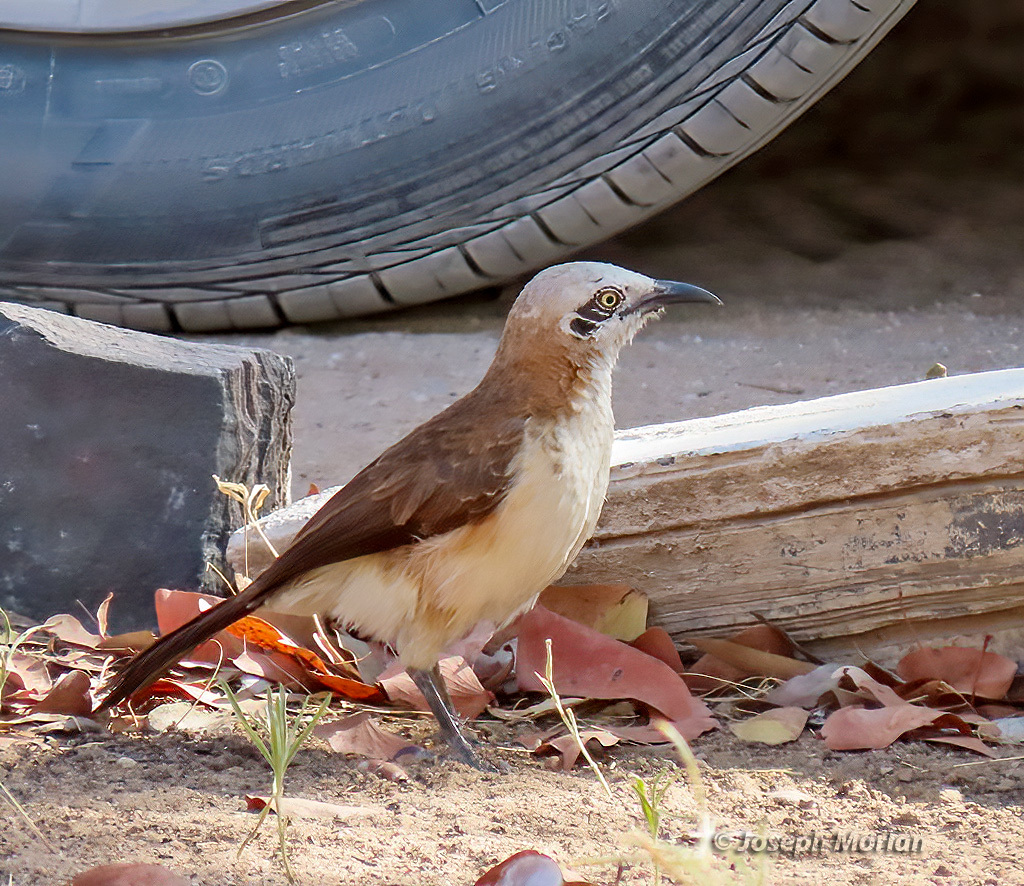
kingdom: Animalia
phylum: Chordata
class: Aves
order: Passeriformes
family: Leiothrichidae
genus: Turdoides
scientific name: Turdoides gymnogenys
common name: Bare-cheeked babbler
